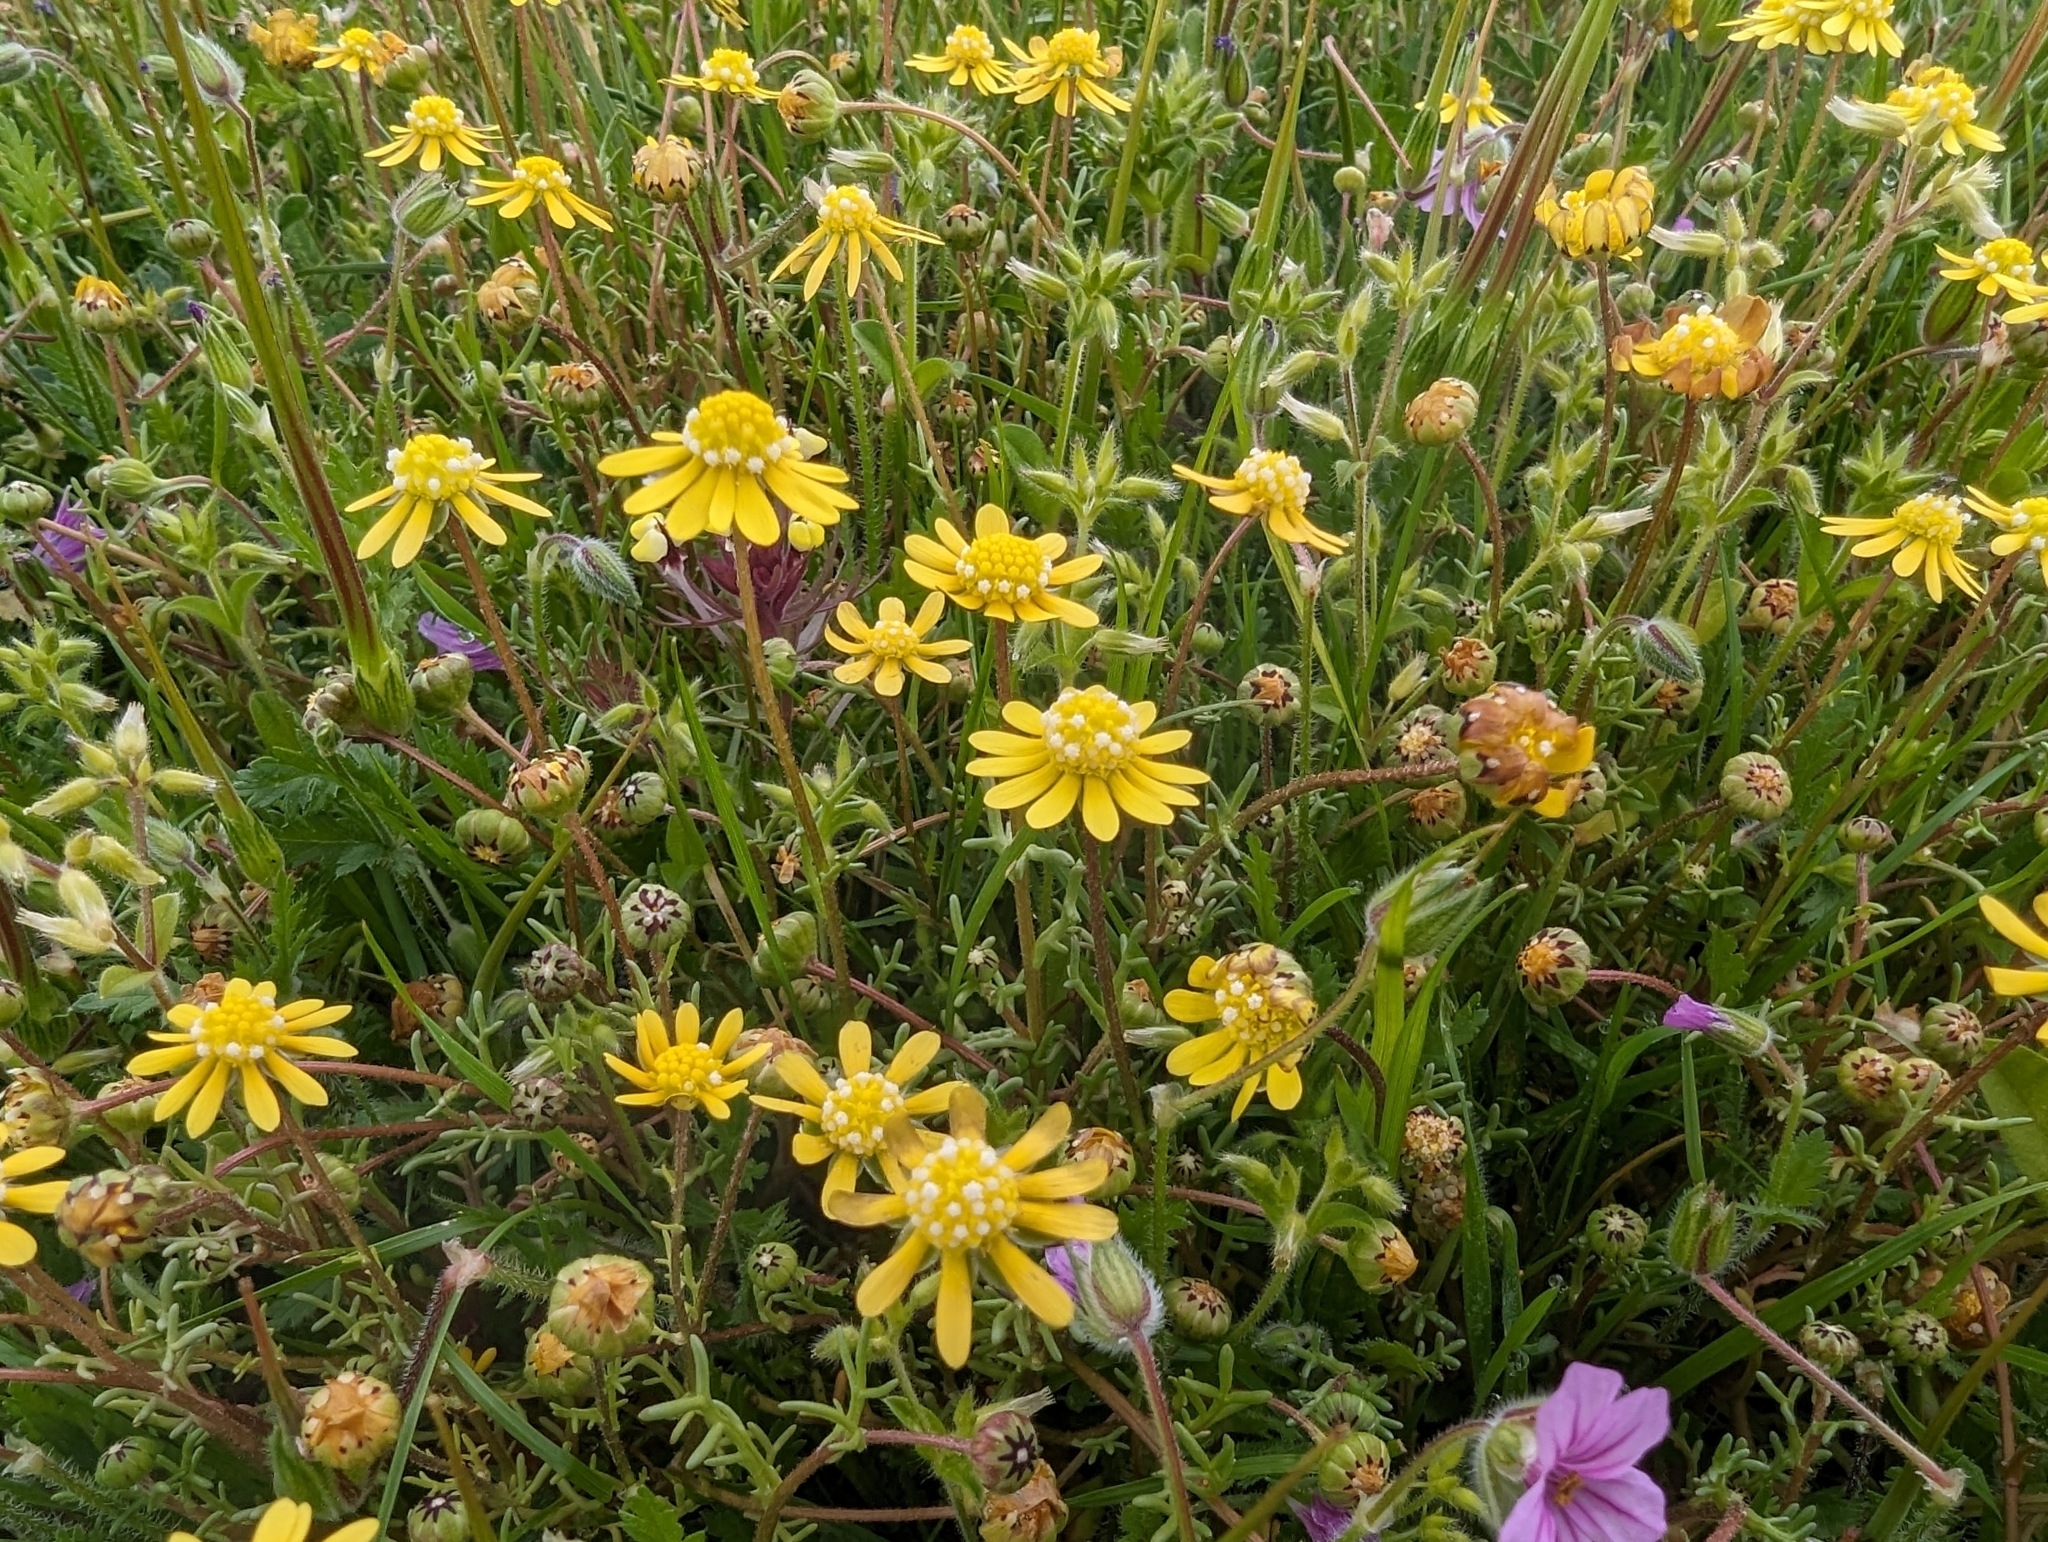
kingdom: Plantae
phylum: Tracheophyta
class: Magnoliopsida
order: Asterales
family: Asteraceae
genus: Blennosperma
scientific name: Blennosperma nanum
